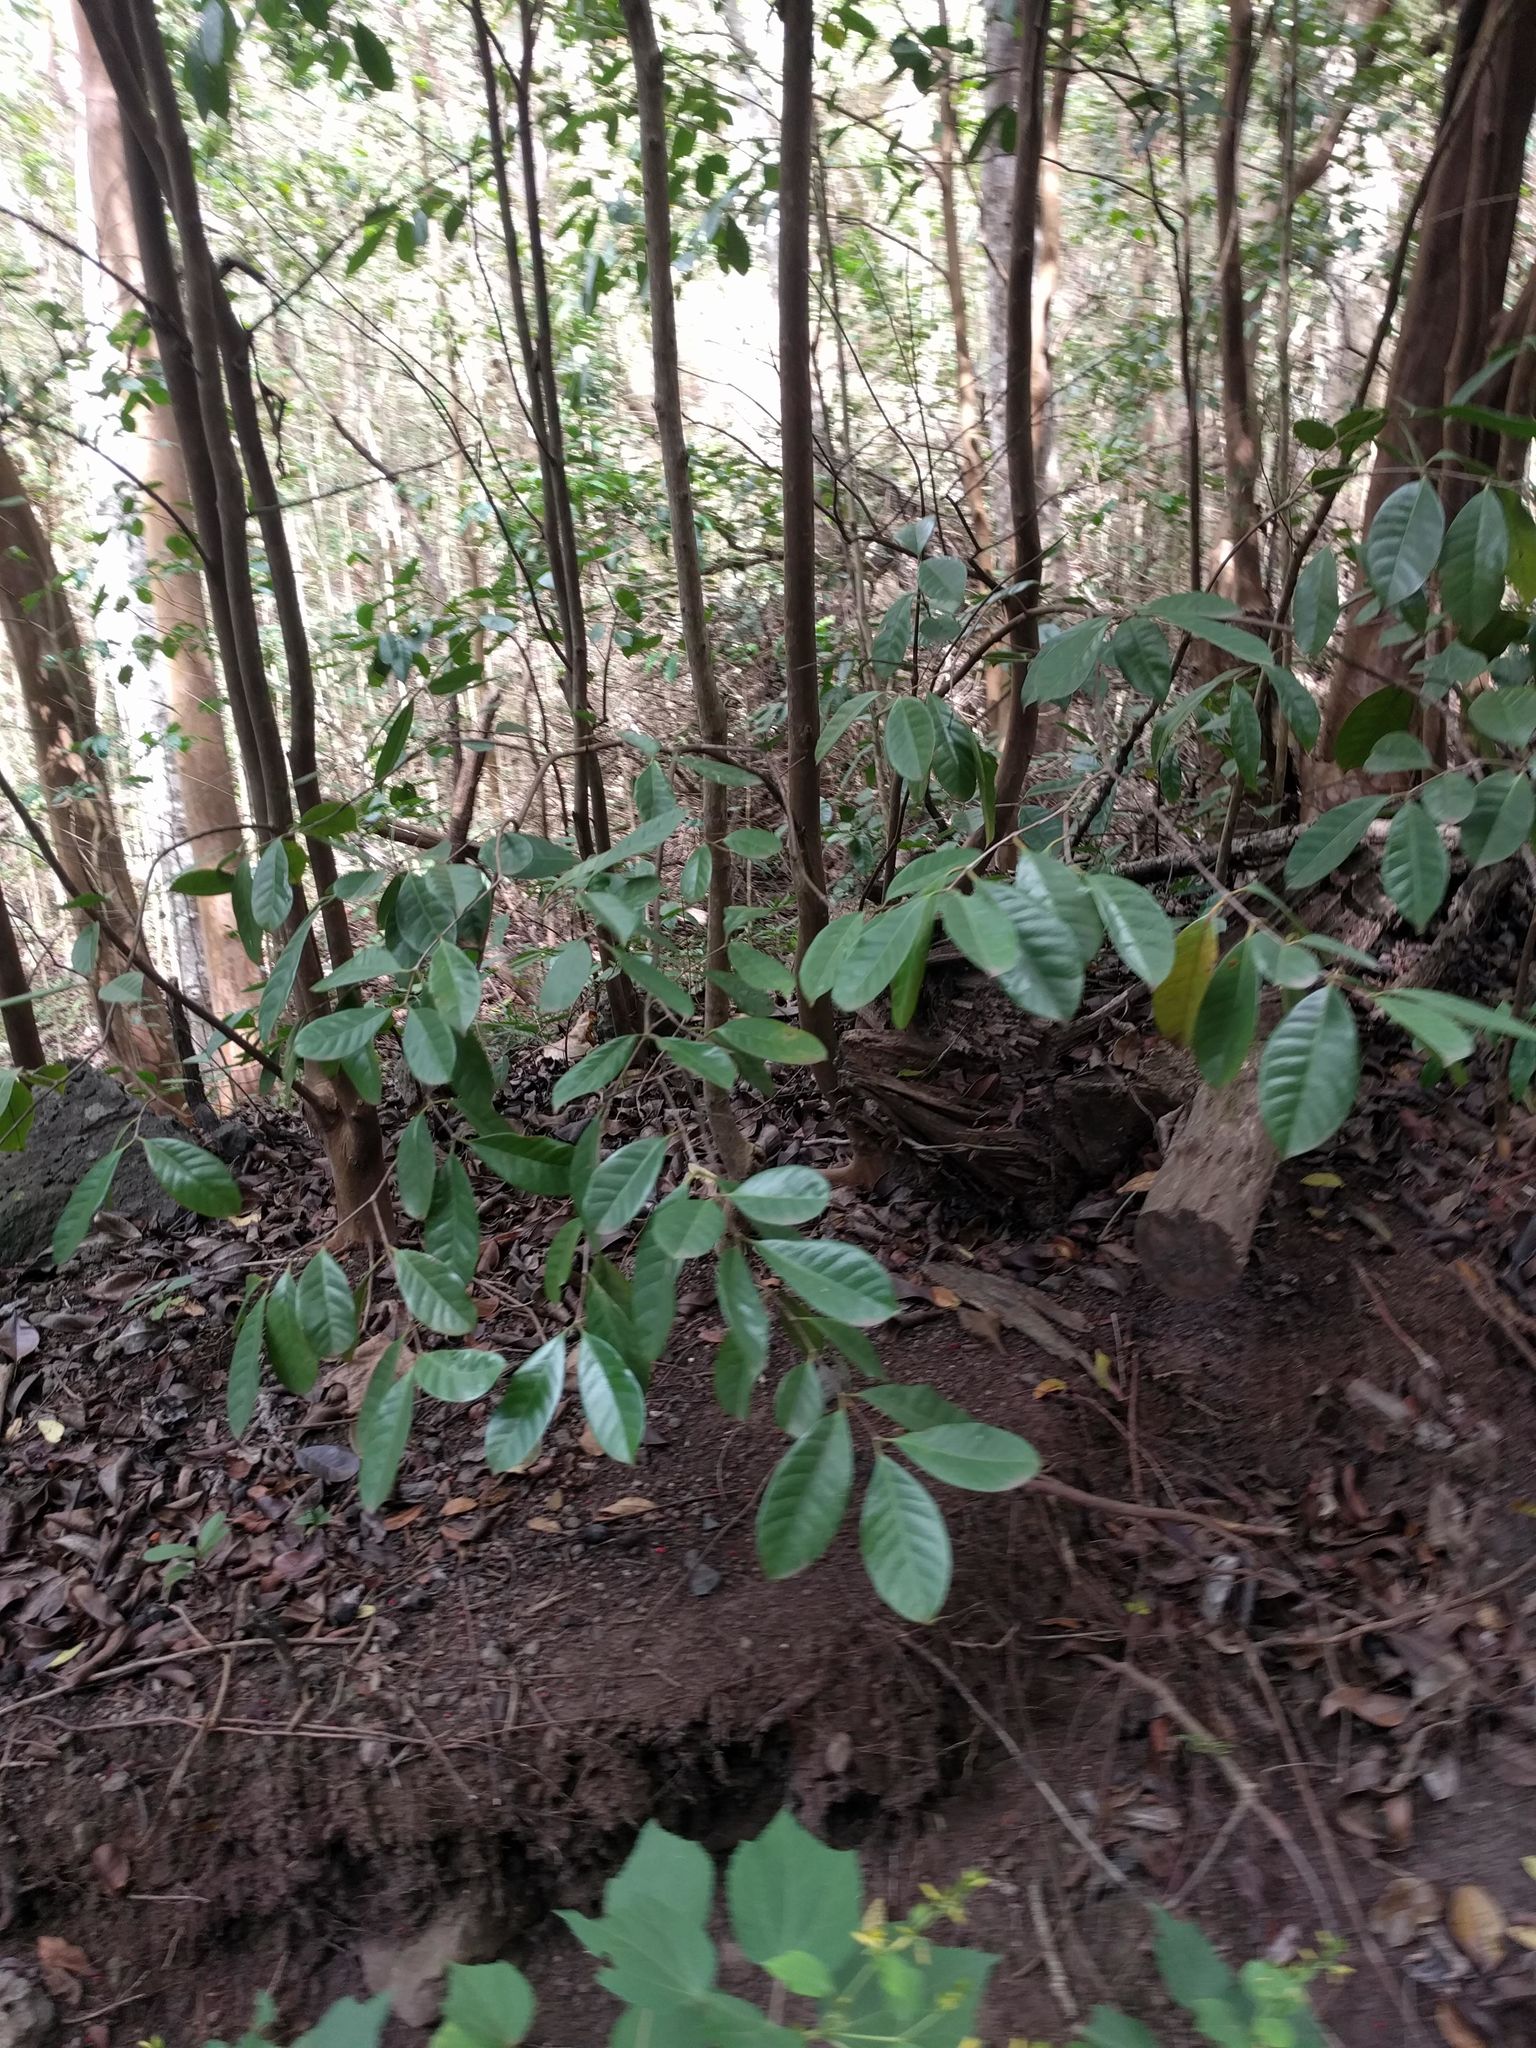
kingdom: Plantae
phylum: Tracheophyta
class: Magnoliopsida
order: Myrtales
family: Myrtaceae
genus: Psidium
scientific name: Psidium cattleianum
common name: Strawberry guava
